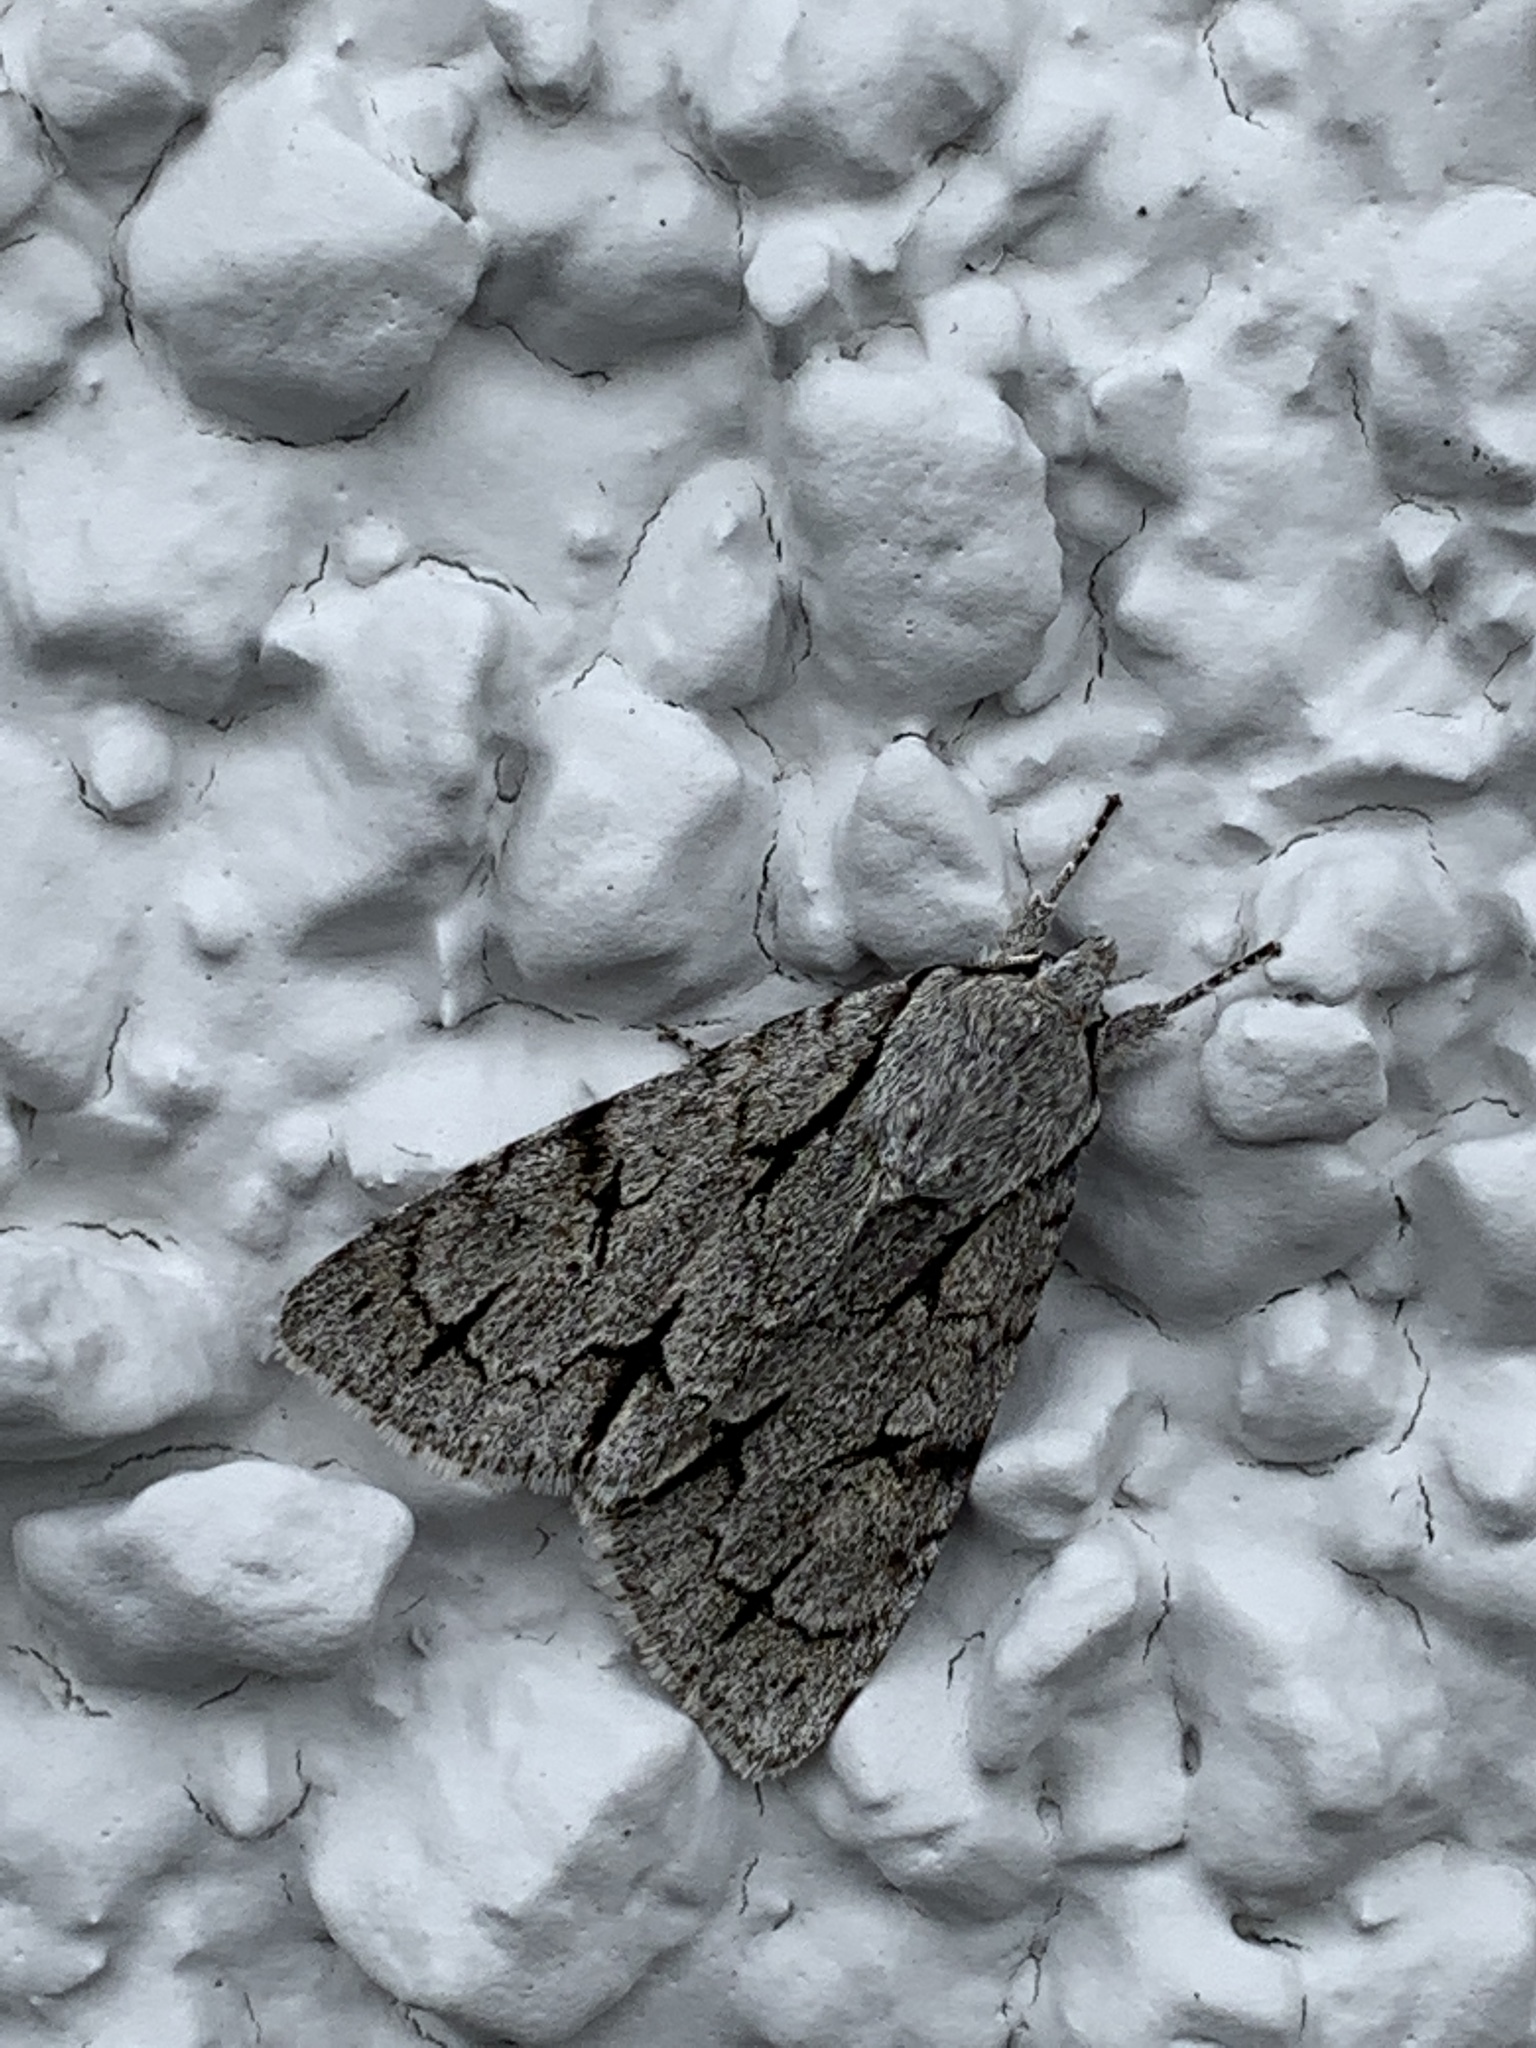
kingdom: Animalia
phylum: Arthropoda
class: Insecta
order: Lepidoptera
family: Noctuidae
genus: Acronicta
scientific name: Acronicta psi
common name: Grey dagger
